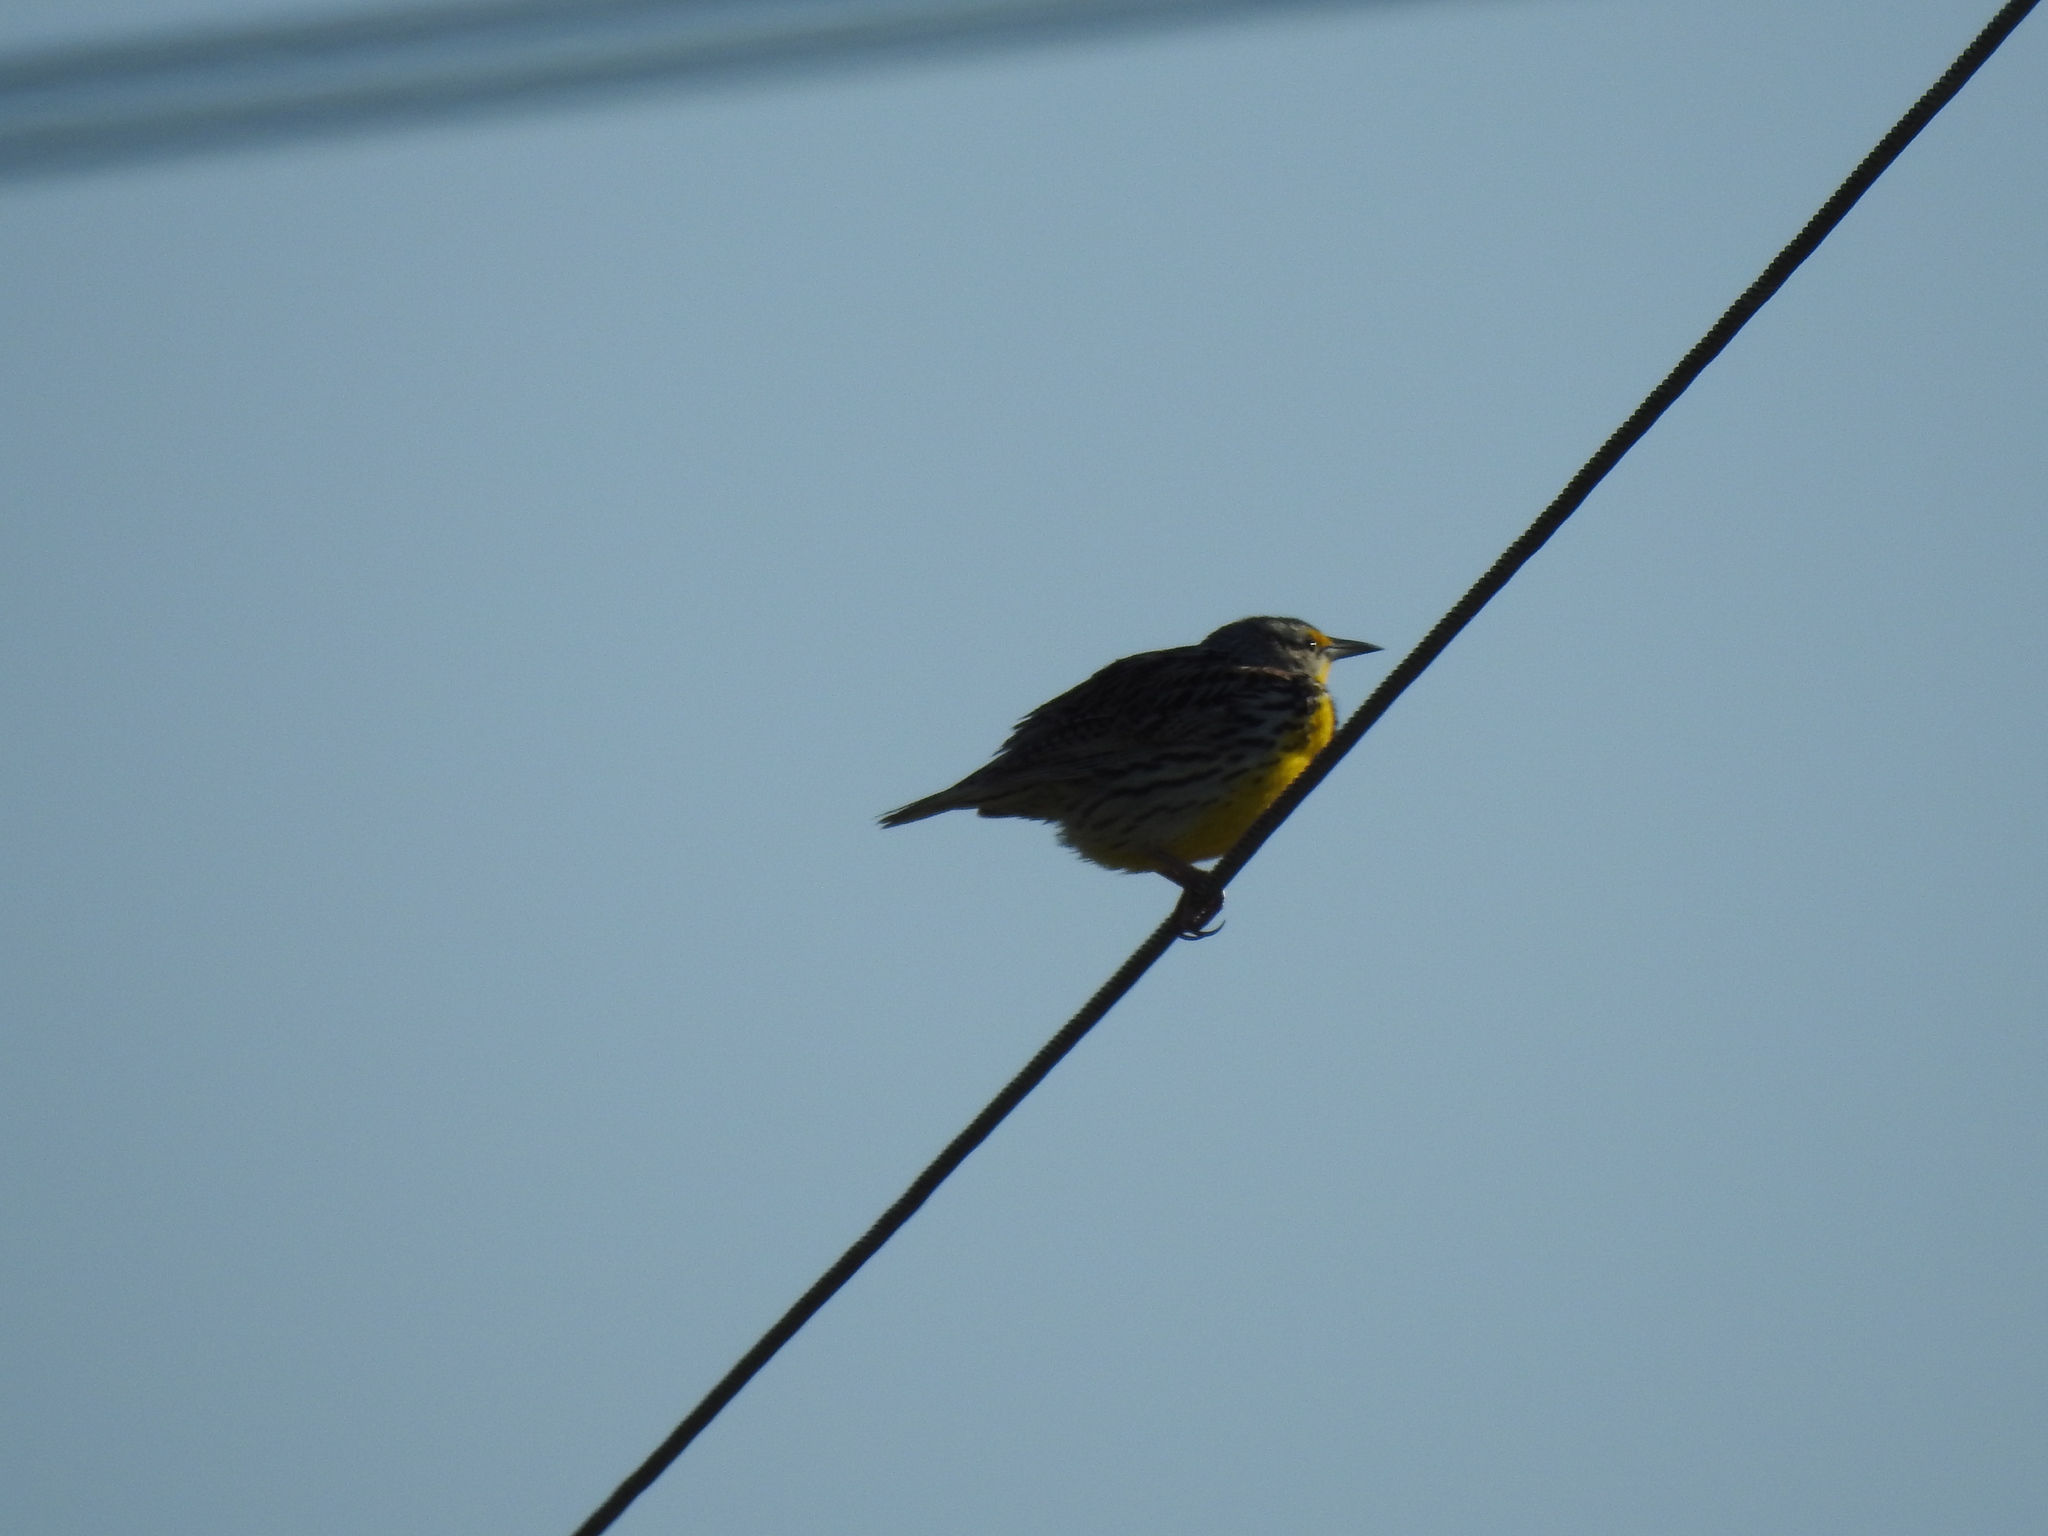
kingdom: Animalia
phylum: Chordata
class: Aves
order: Passeriformes
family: Icteridae
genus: Sturnella
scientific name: Sturnella magna
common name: Eastern meadowlark
